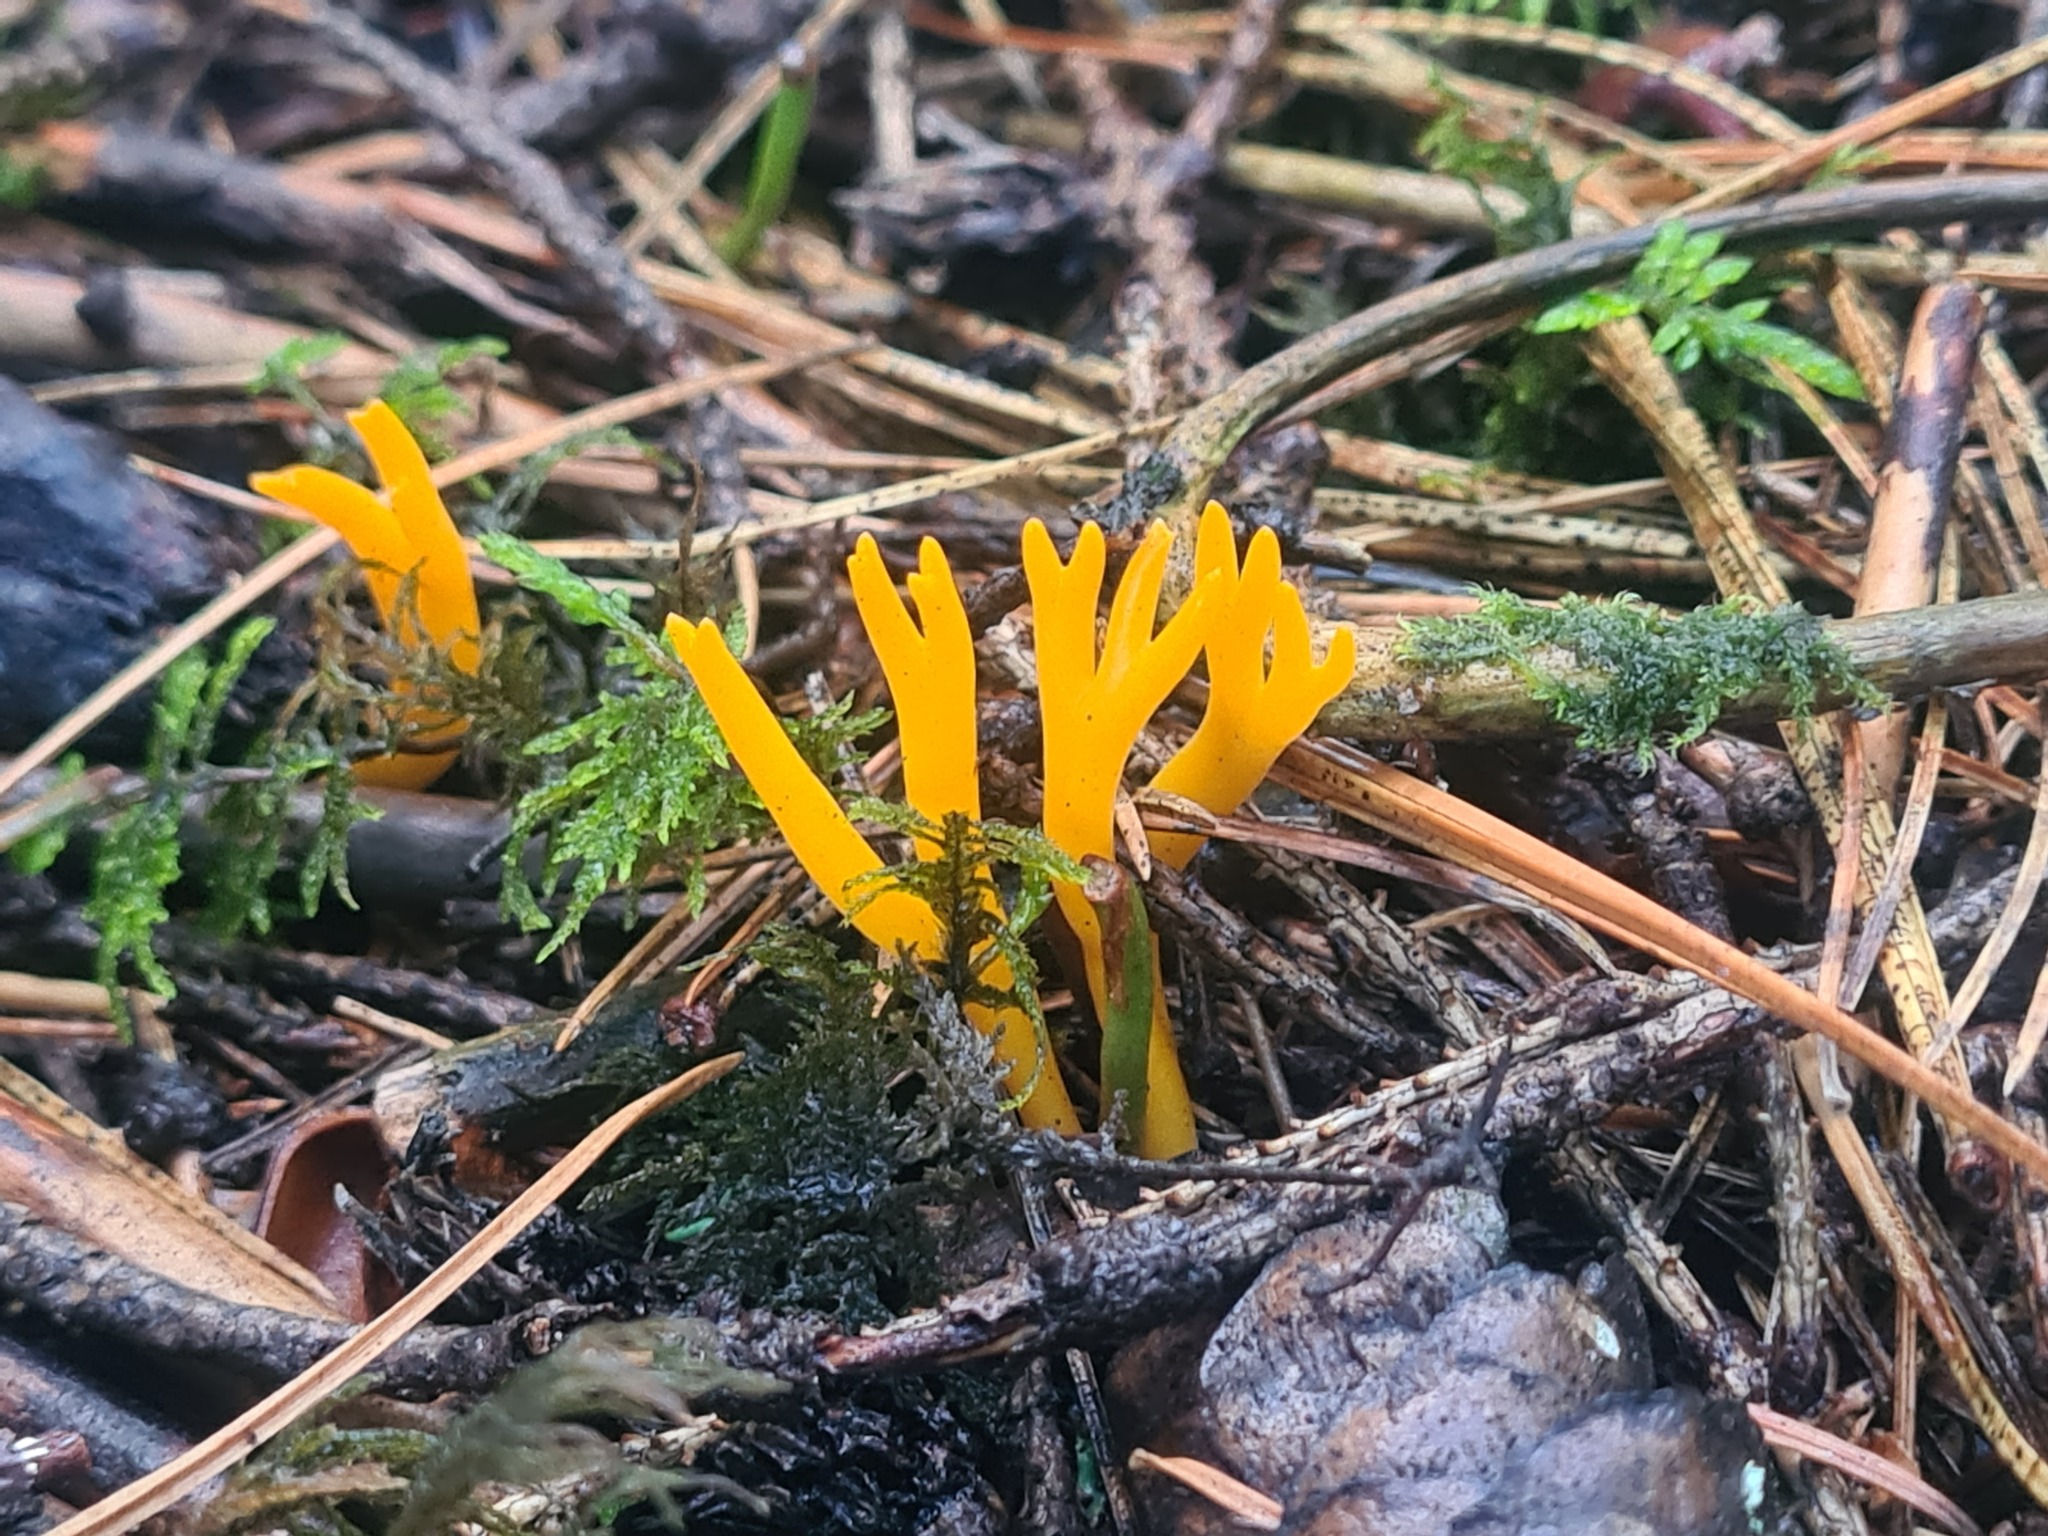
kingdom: Fungi
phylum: Basidiomycota
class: Dacrymycetes
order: Dacrymycetales
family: Dacrymycetaceae
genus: Calocera
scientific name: Calocera viscosa
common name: Yellow stagshorn
